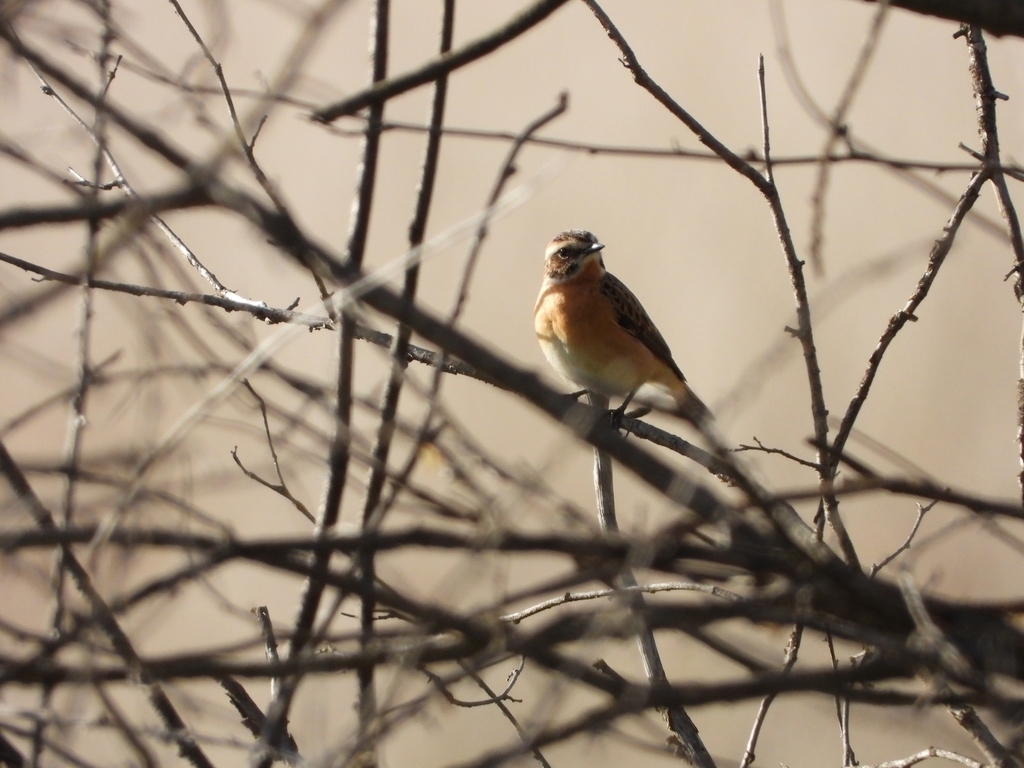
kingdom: Animalia
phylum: Chordata
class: Aves
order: Passeriformes
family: Muscicapidae
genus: Saxicola
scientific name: Saxicola rubetra
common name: Whinchat
